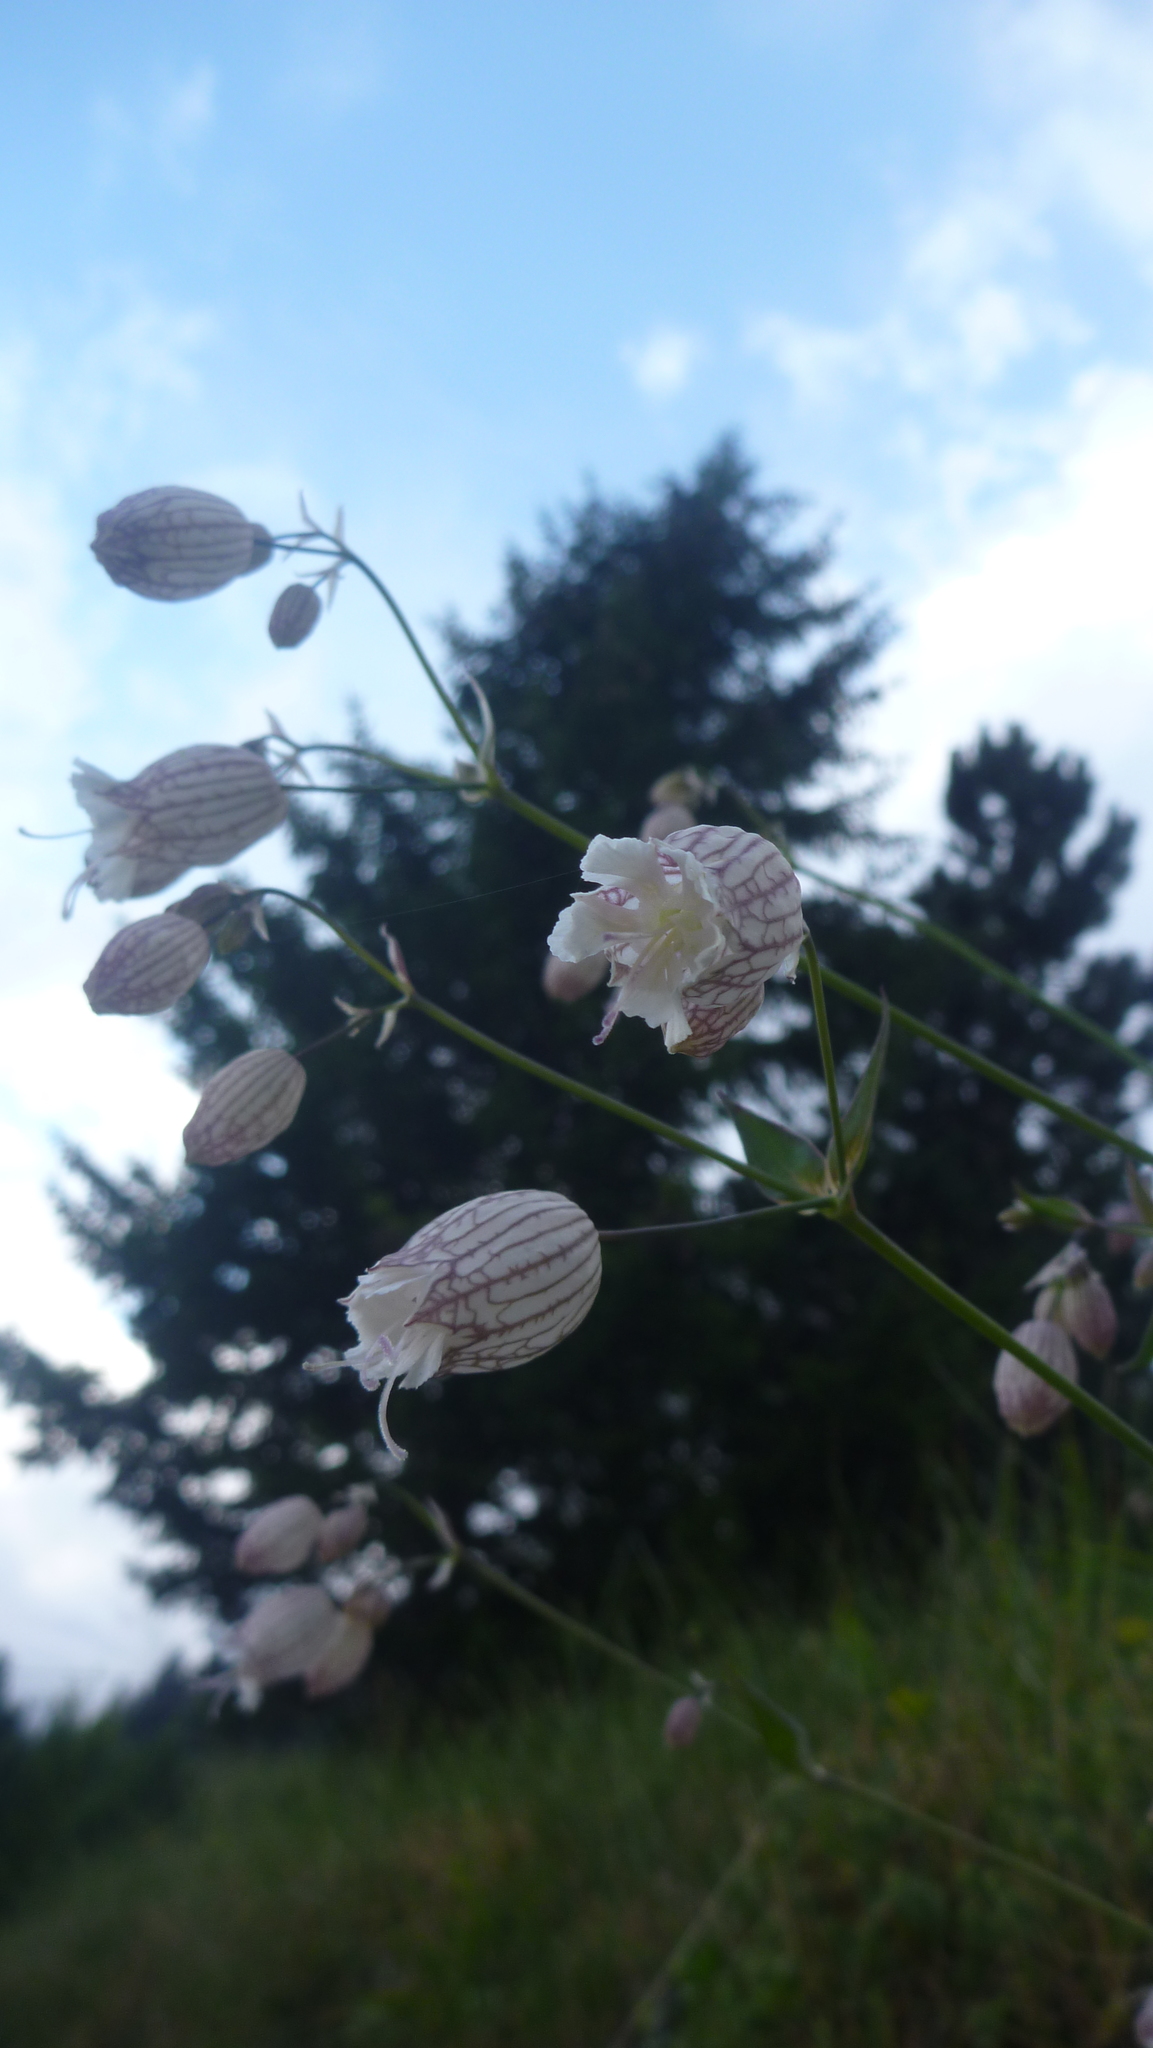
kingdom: Plantae
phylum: Tracheophyta
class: Magnoliopsida
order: Caryophyllales
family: Caryophyllaceae
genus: Silene
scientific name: Silene vulgaris
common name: Bladder campion
